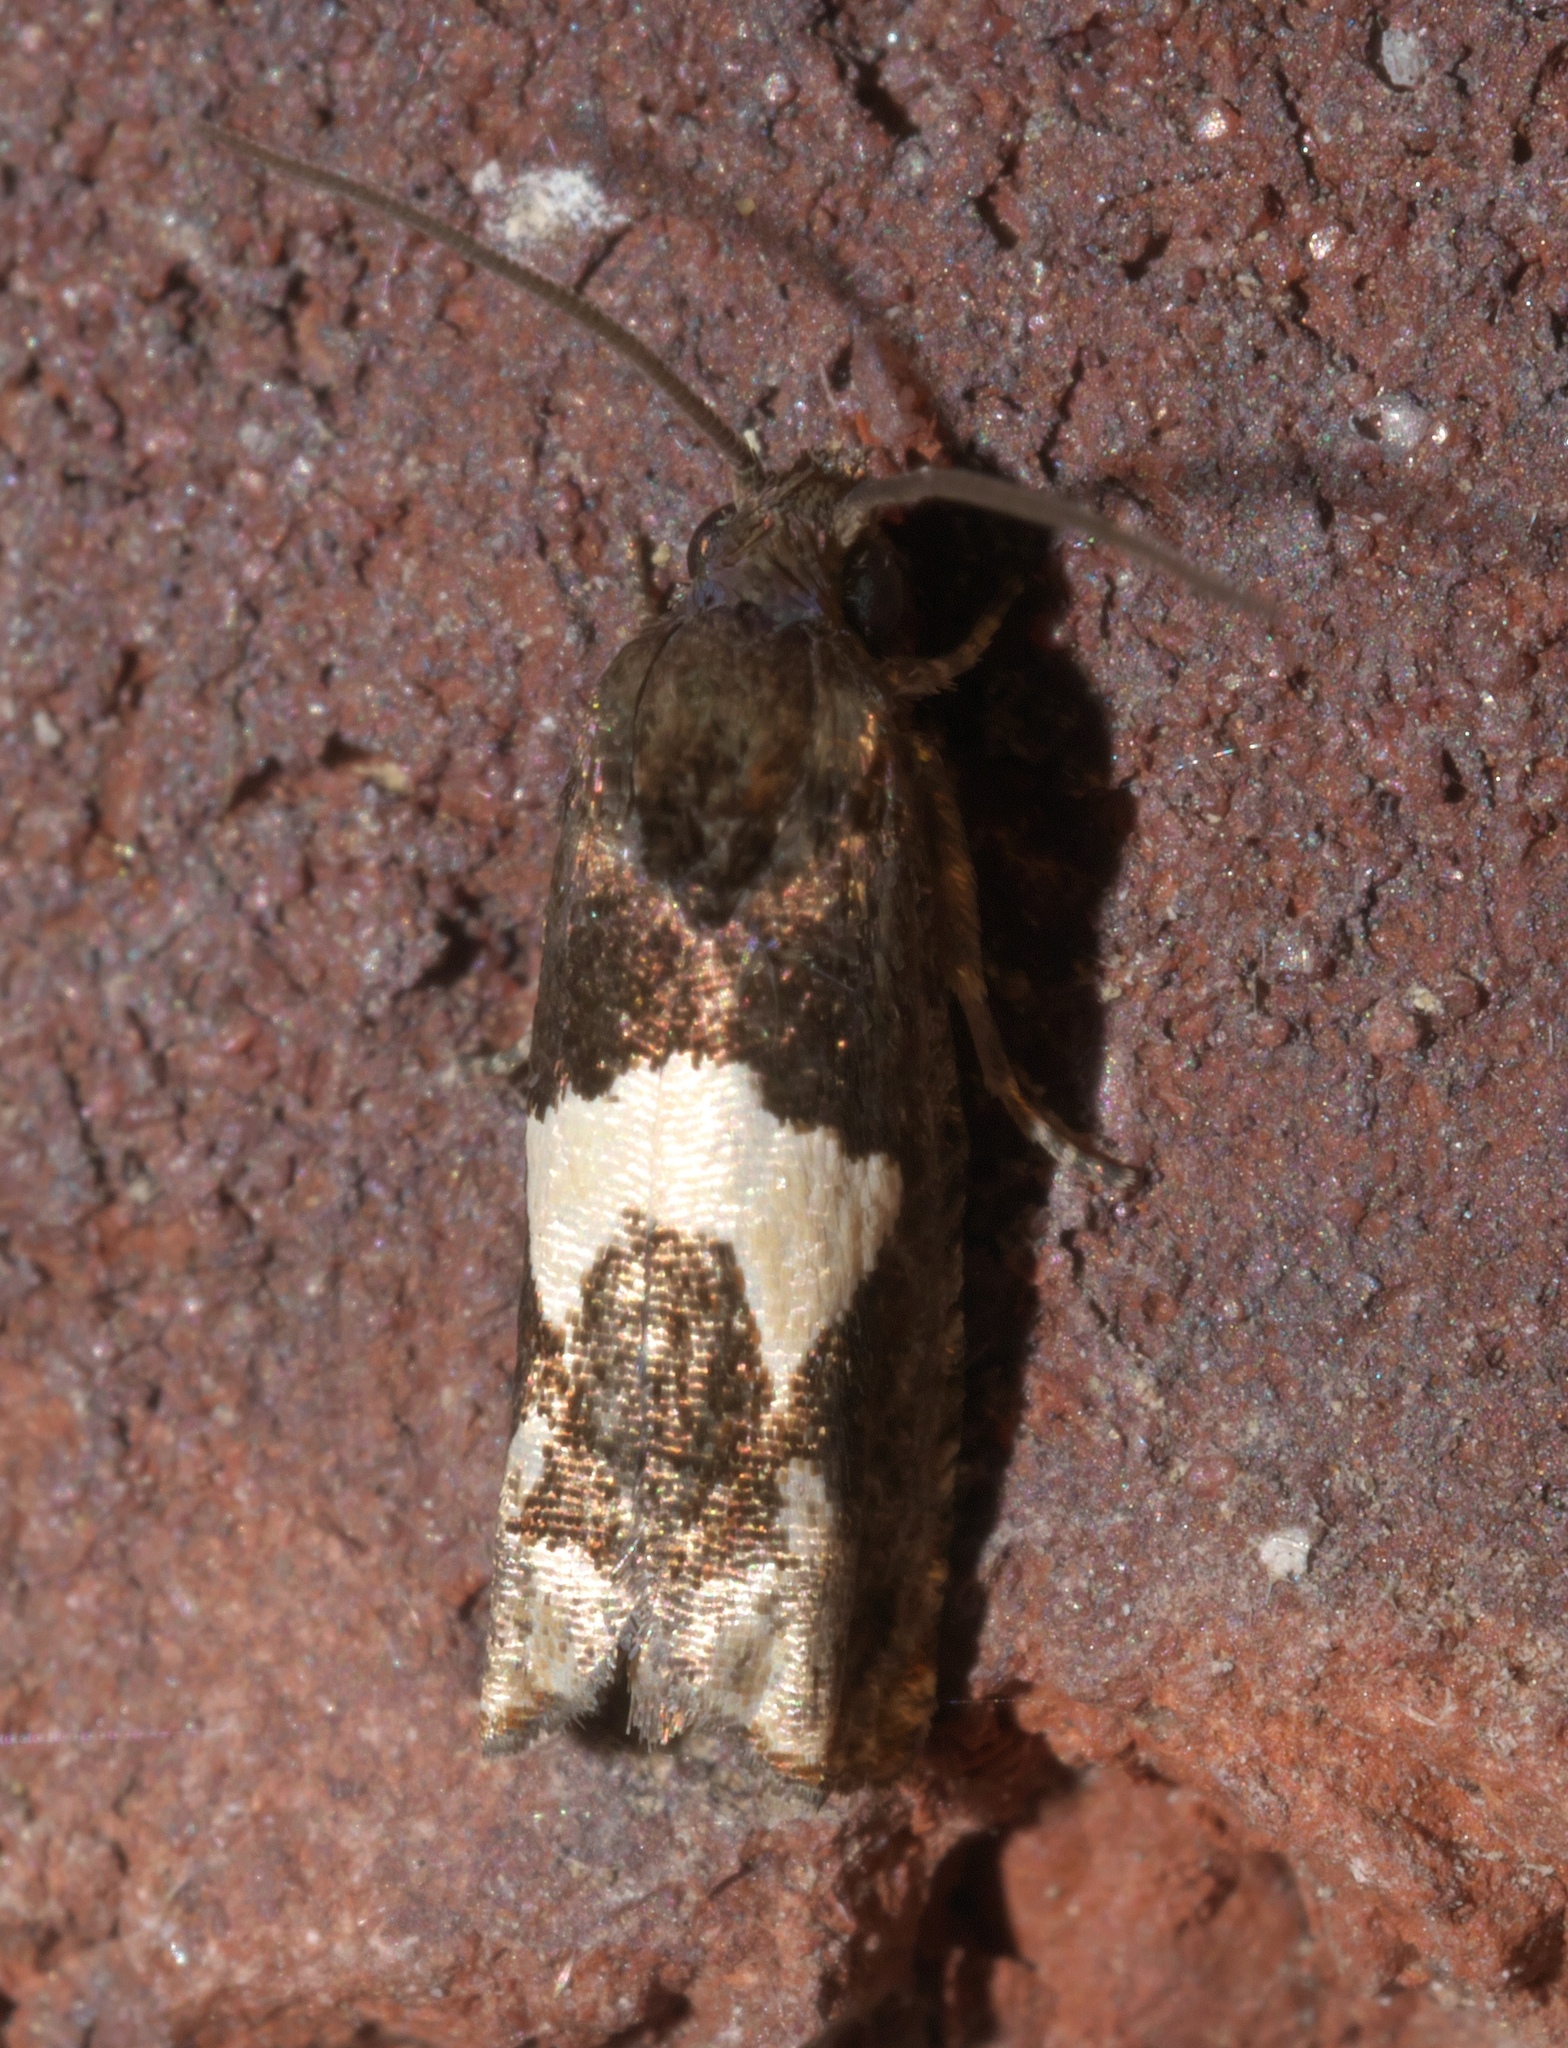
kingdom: Animalia
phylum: Arthropoda
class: Insecta
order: Lepidoptera
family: Tortricidae
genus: Epiblema
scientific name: Epiblema otiosana
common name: Bidens borer moth
